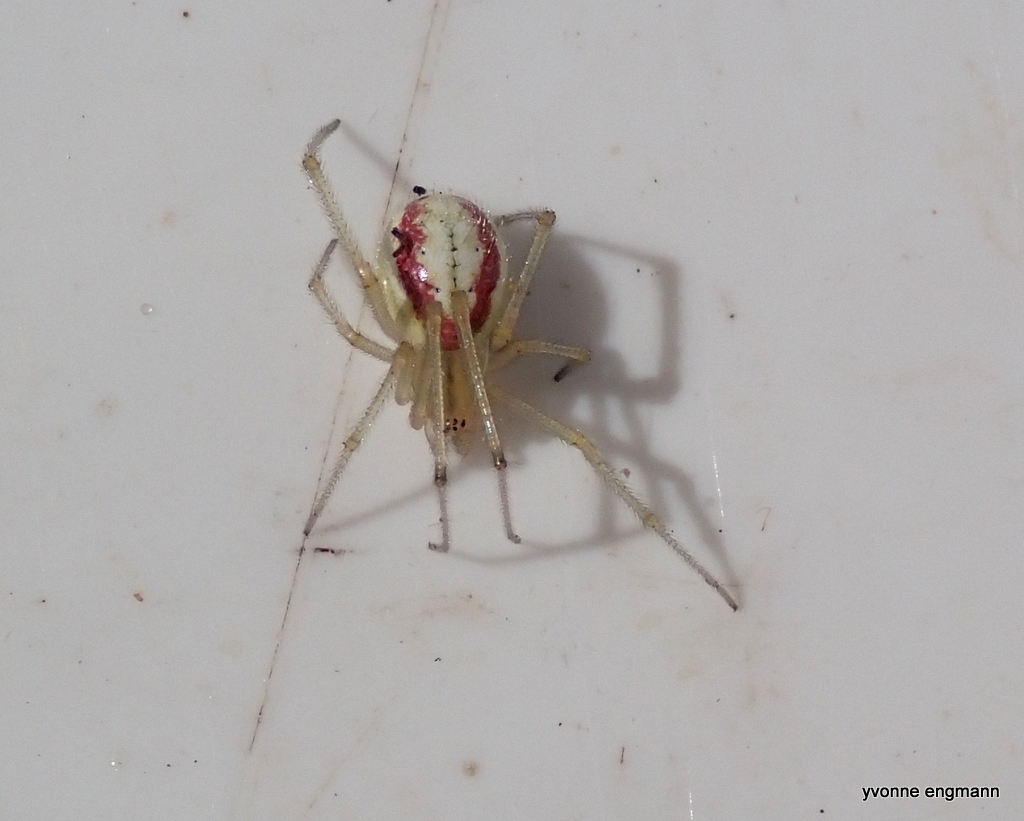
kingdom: Animalia
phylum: Arthropoda
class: Arachnida
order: Araneae
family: Theridiidae
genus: Enoplognatha
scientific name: Enoplognatha ovata
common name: Common candy-striped spider
